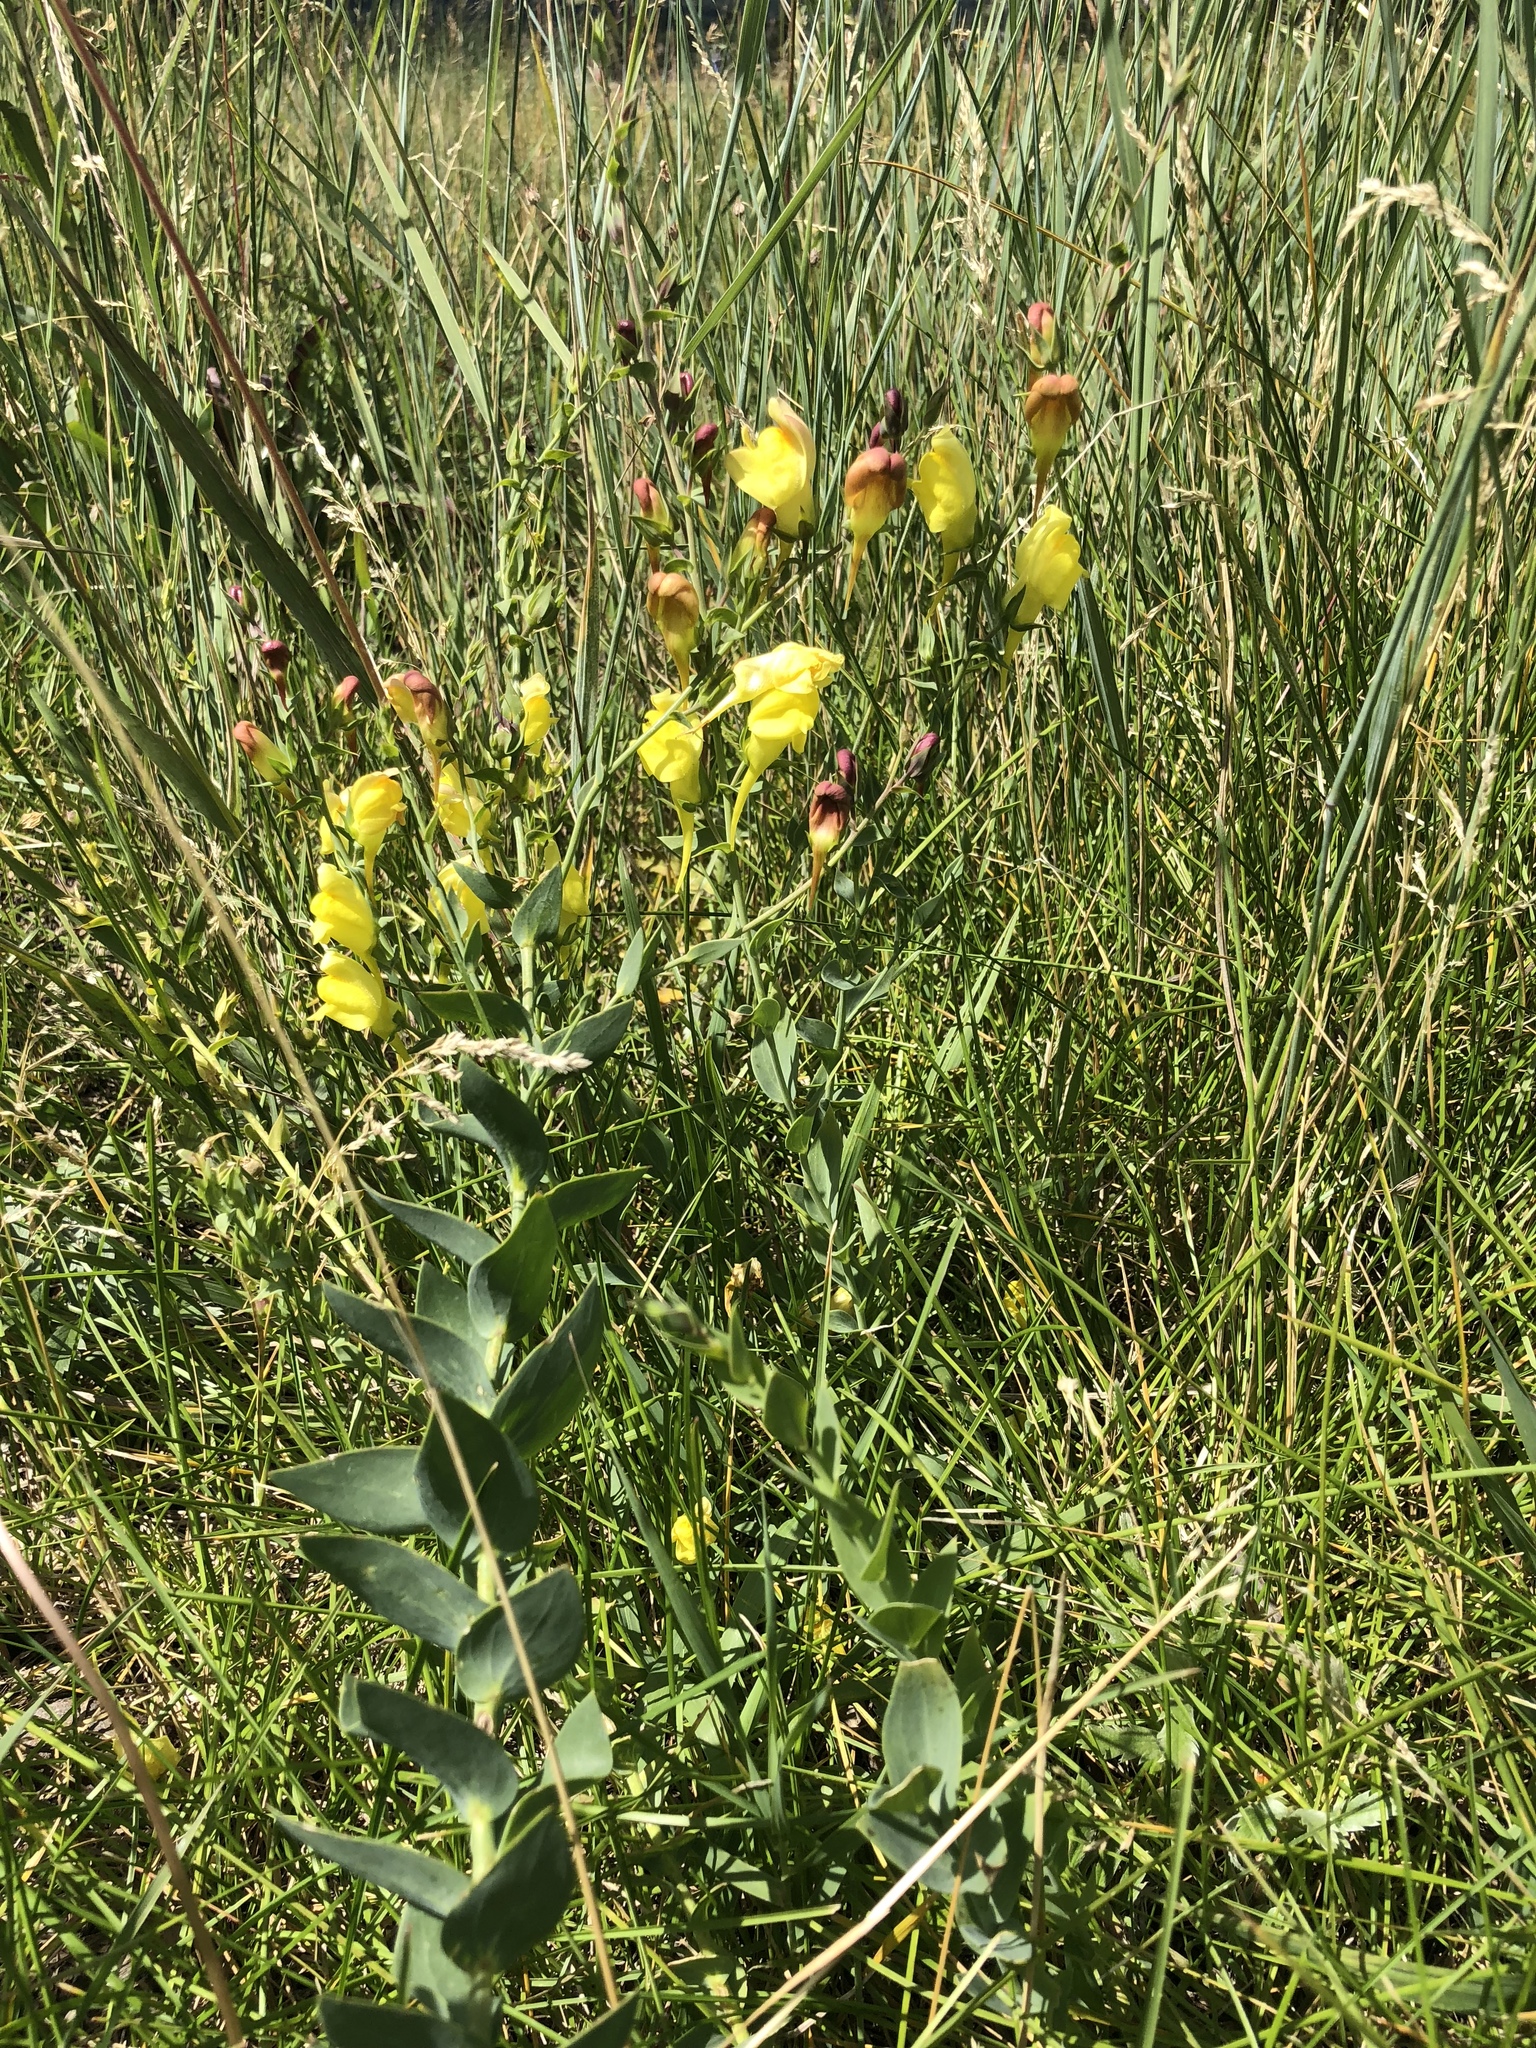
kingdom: Plantae
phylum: Tracheophyta
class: Magnoliopsida
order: Lamiales
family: Plantaginaceae
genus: Linaria
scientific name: Linaria dalmatica
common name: Dalmatian toadflax
